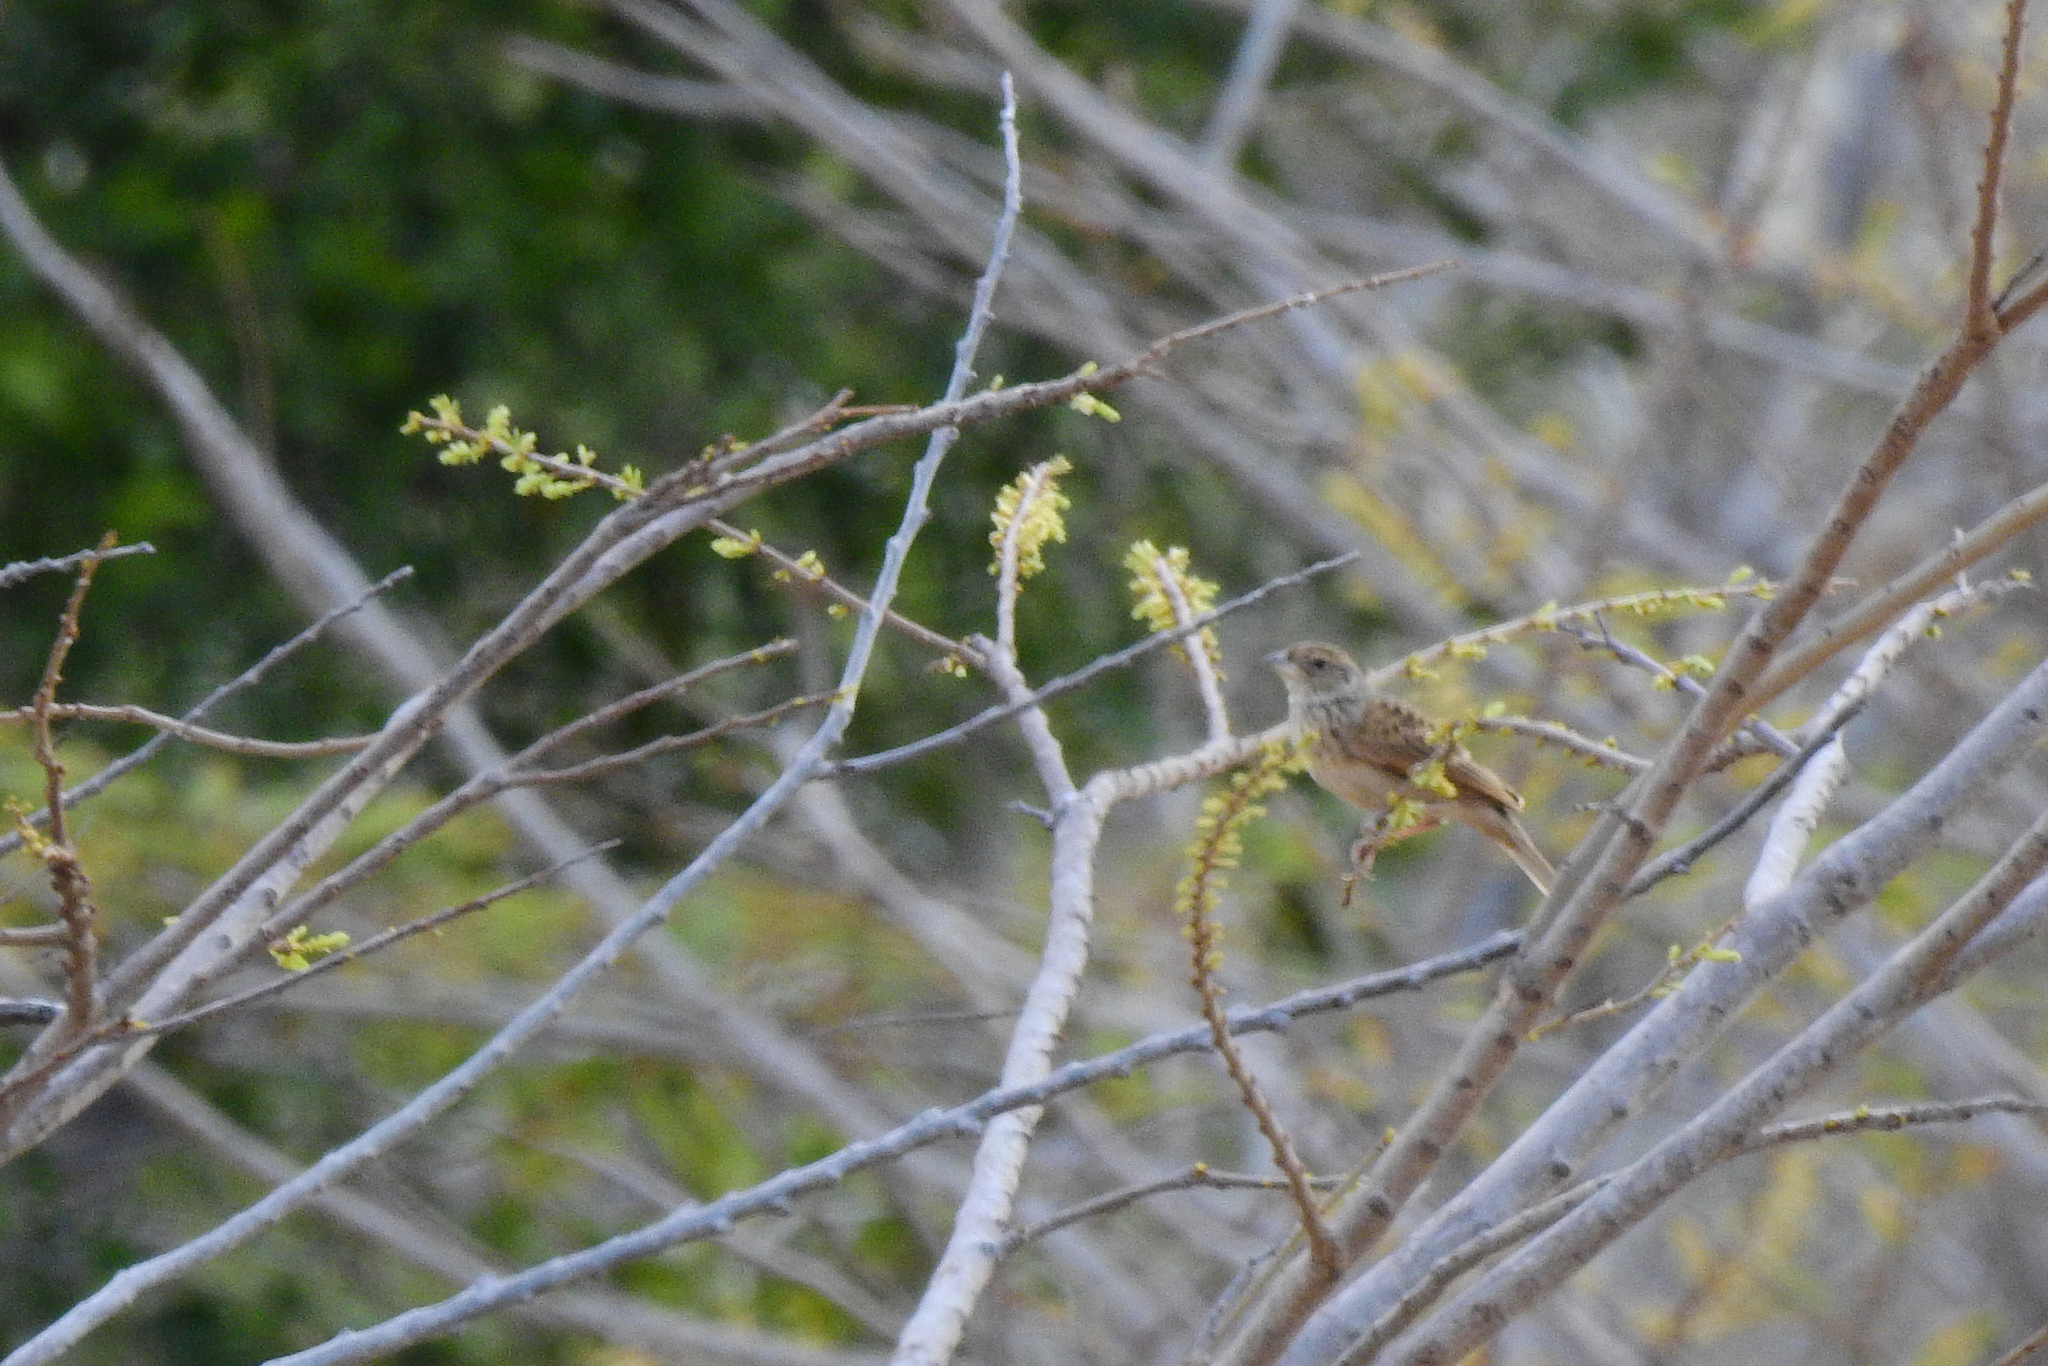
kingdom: Animalia
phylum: Chordata
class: Aves
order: Passeriformes
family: Alaudidae
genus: Mirafra
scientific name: Mirafra javanica
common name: Horsfield's bush lark
